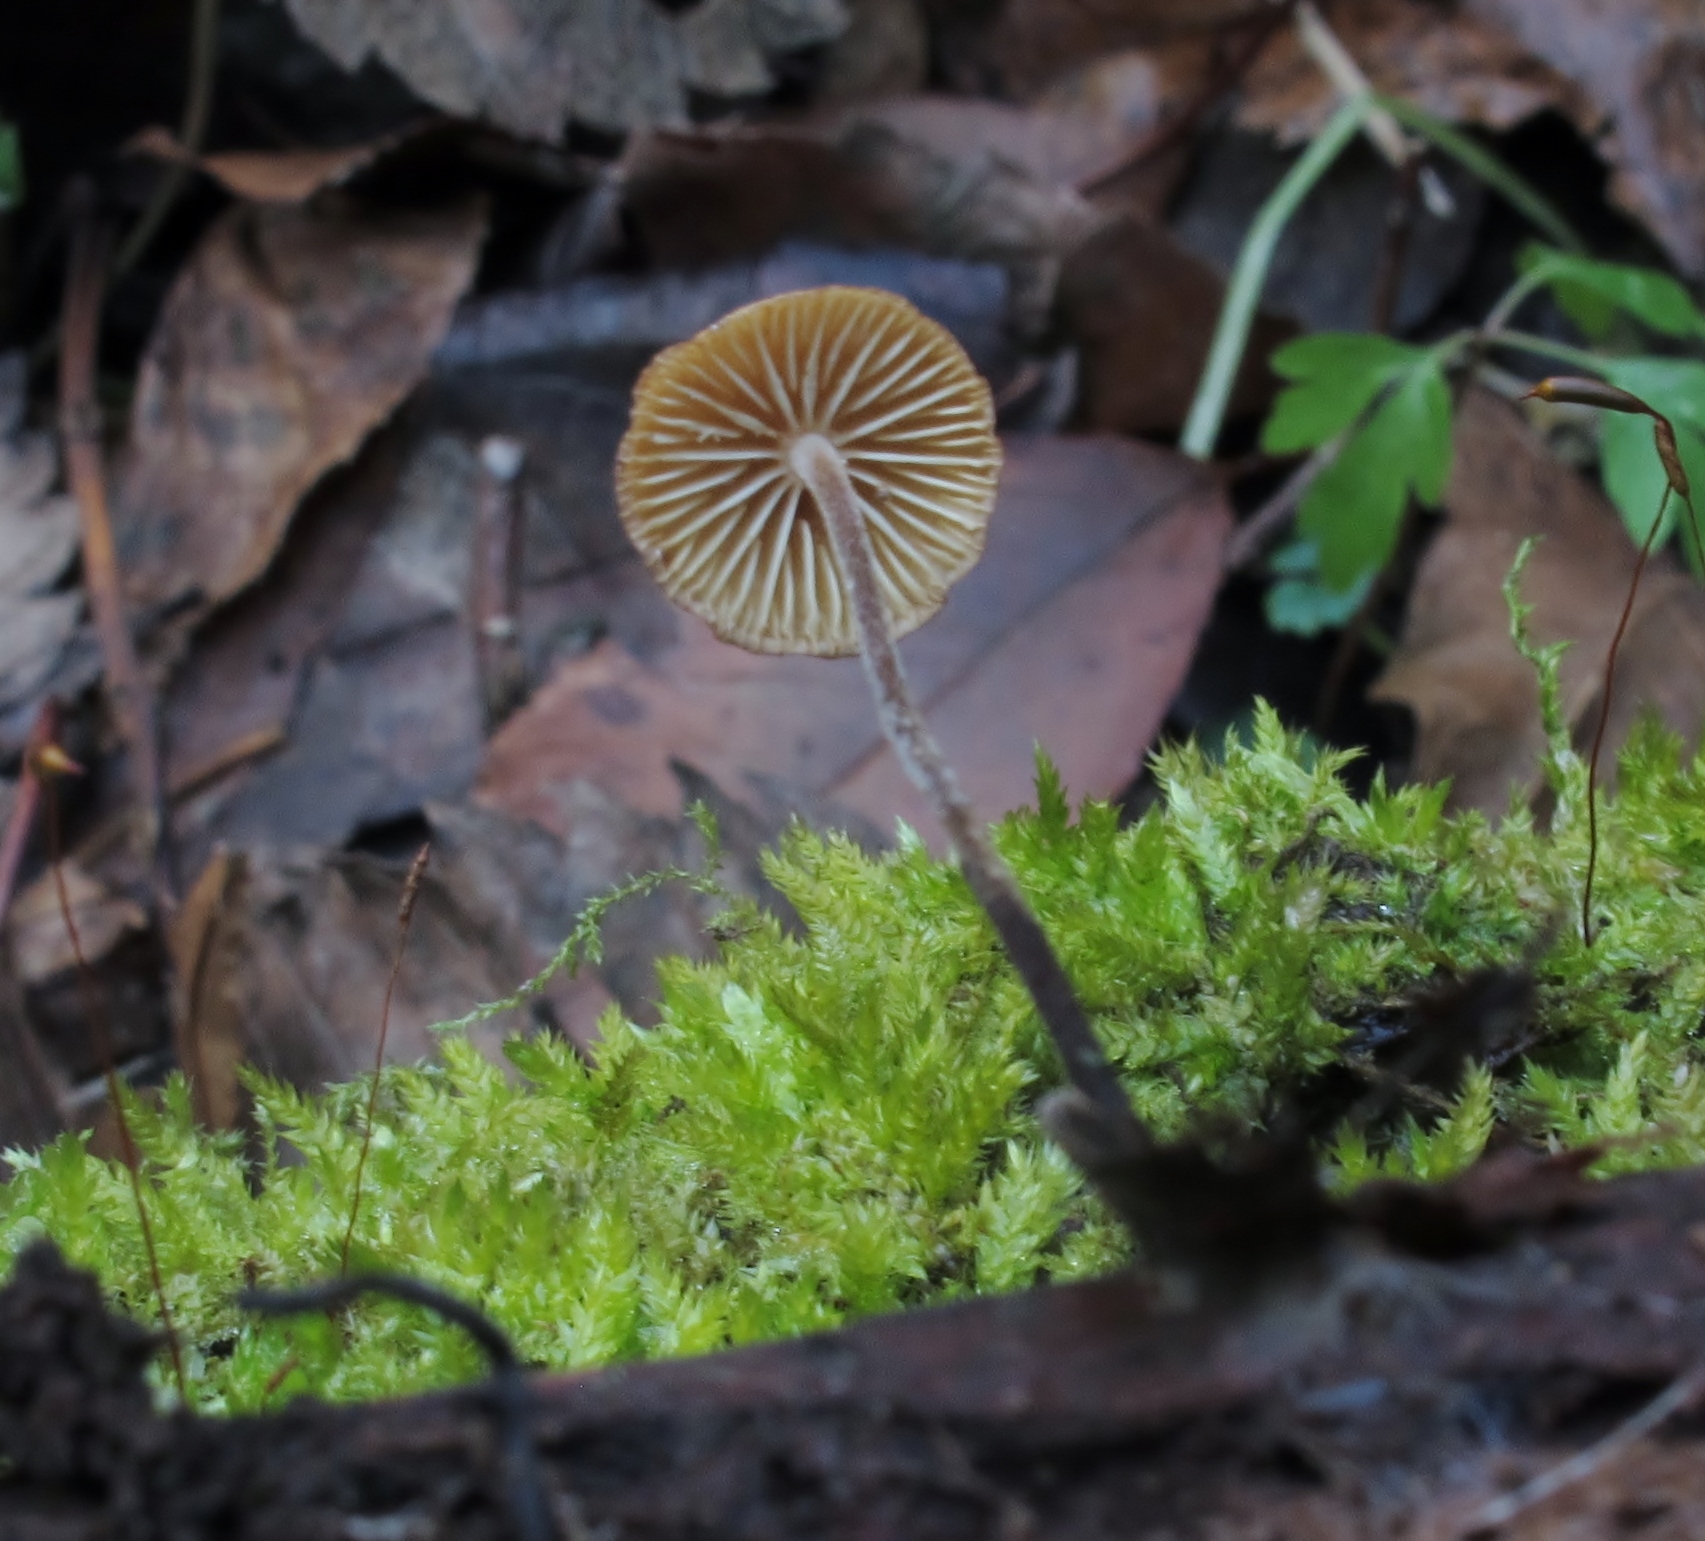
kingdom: Fungi
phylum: Basidiomycota
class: Agaricomycetes
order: Agaricales
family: Physalacriaceae
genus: Rhizomarasmius
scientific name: Rhizomarasmius pyrrhocephalus
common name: Hairy long stem marasmius
